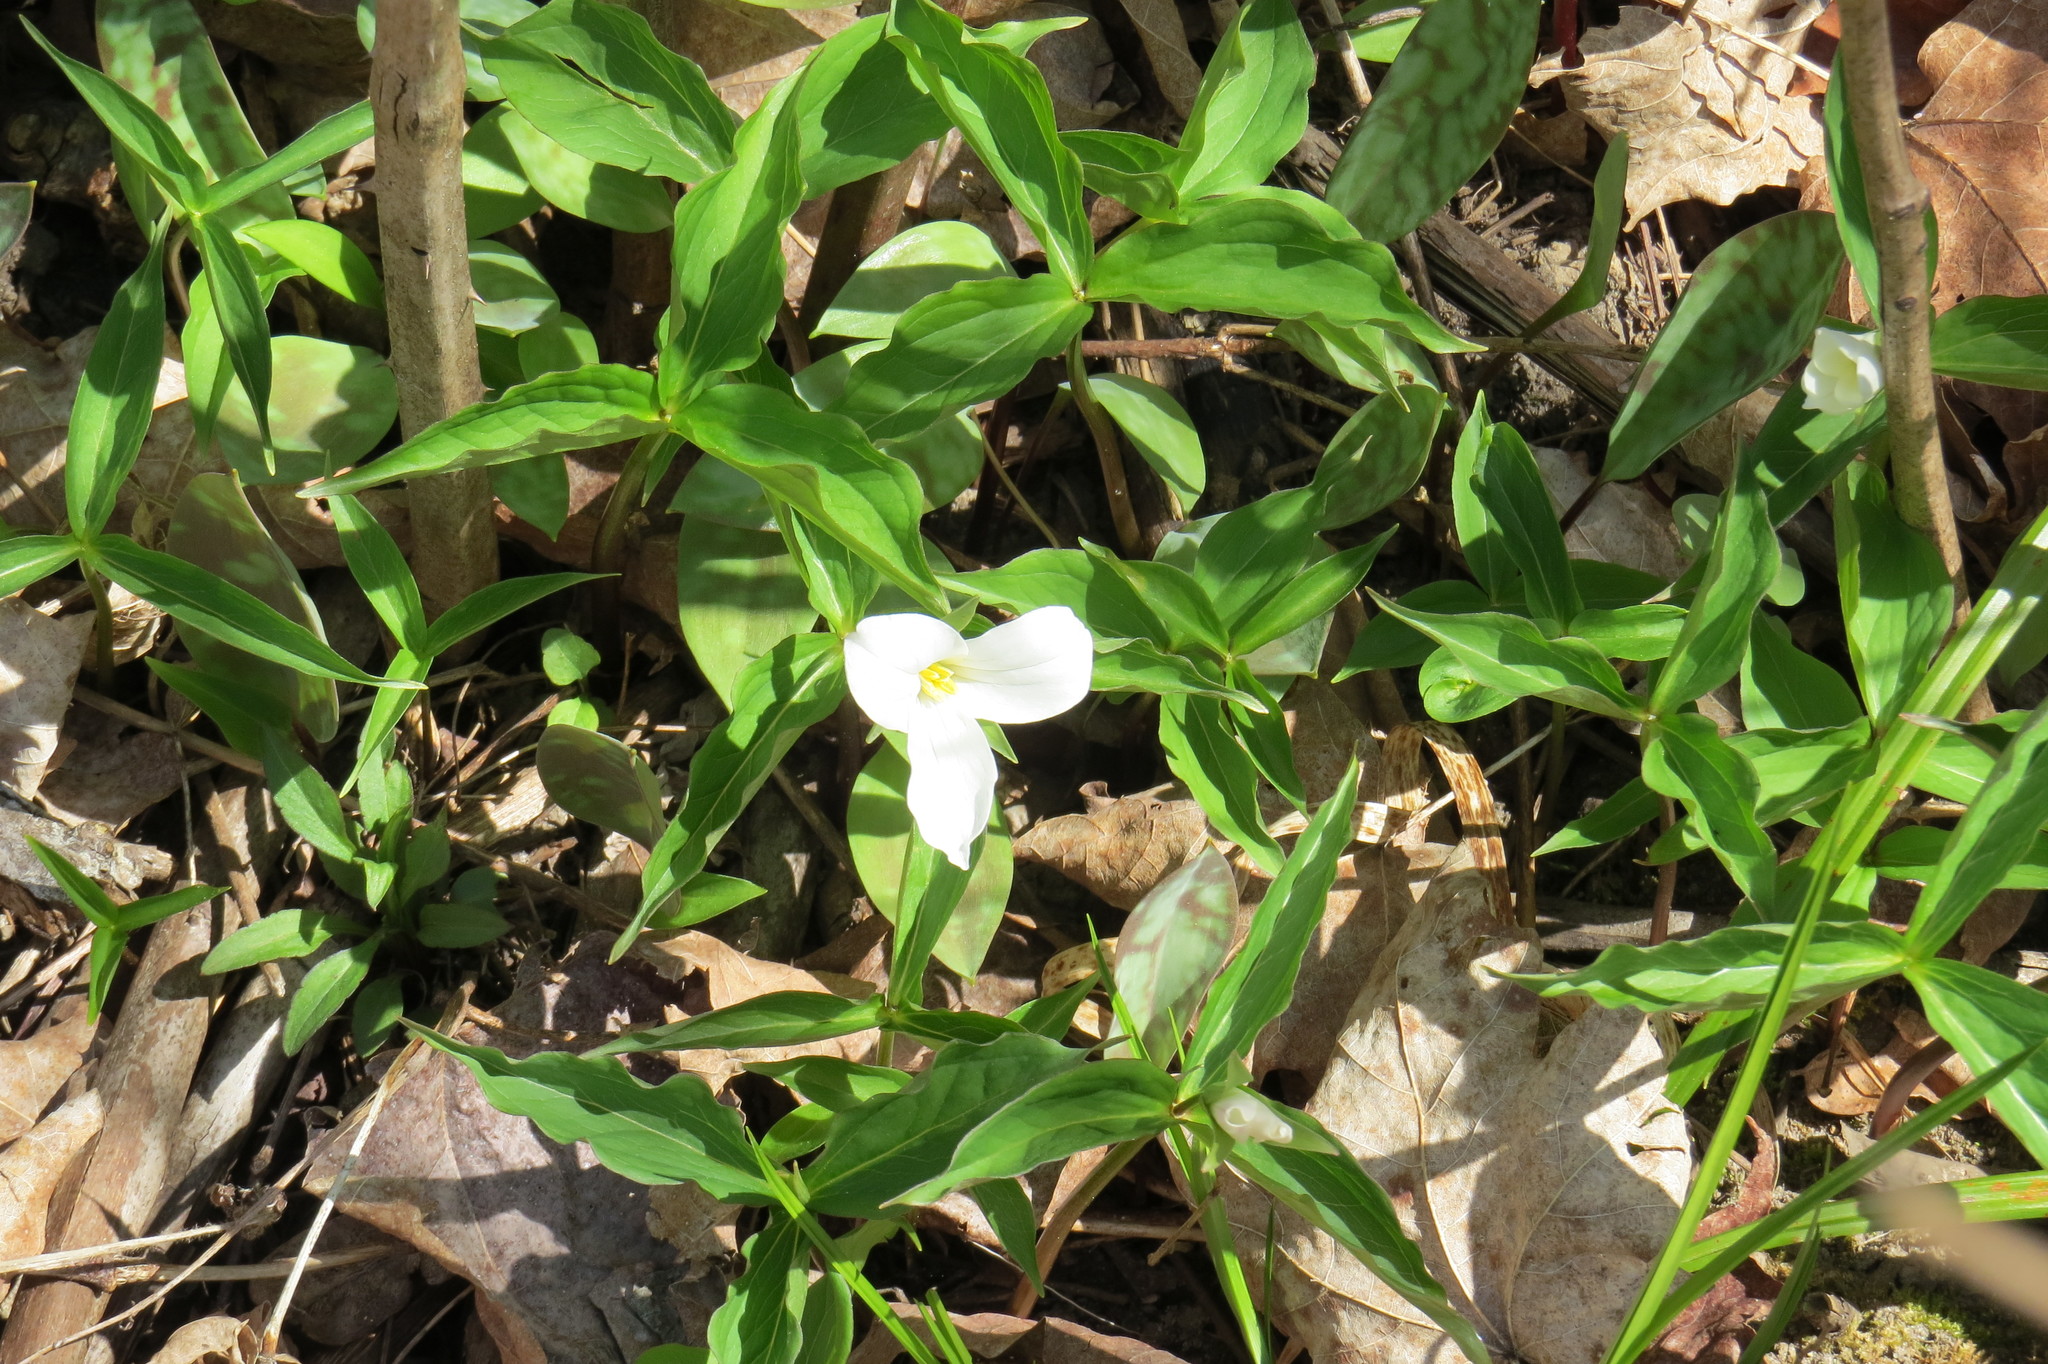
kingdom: Plantae
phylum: Tracheophyta
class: Liliopsida
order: Liliales
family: Melanthiaceae
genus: Trillium
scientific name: Trillium grandiflorum
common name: Great white trillium
